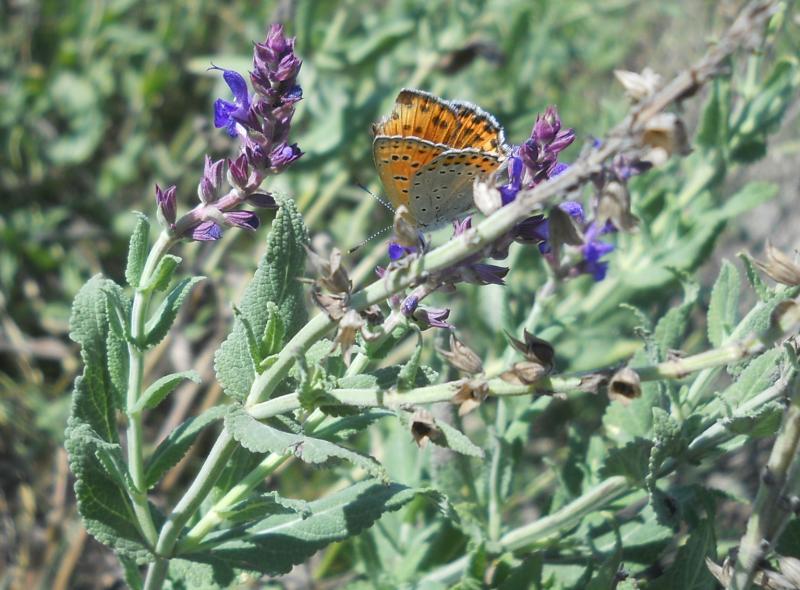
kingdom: Plantae
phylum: Tracheophyta
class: Magnoliopsida
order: Lamiales
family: Lamiaceae
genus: Salvia
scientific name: Salvia nemorosa
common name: Balkan clary
